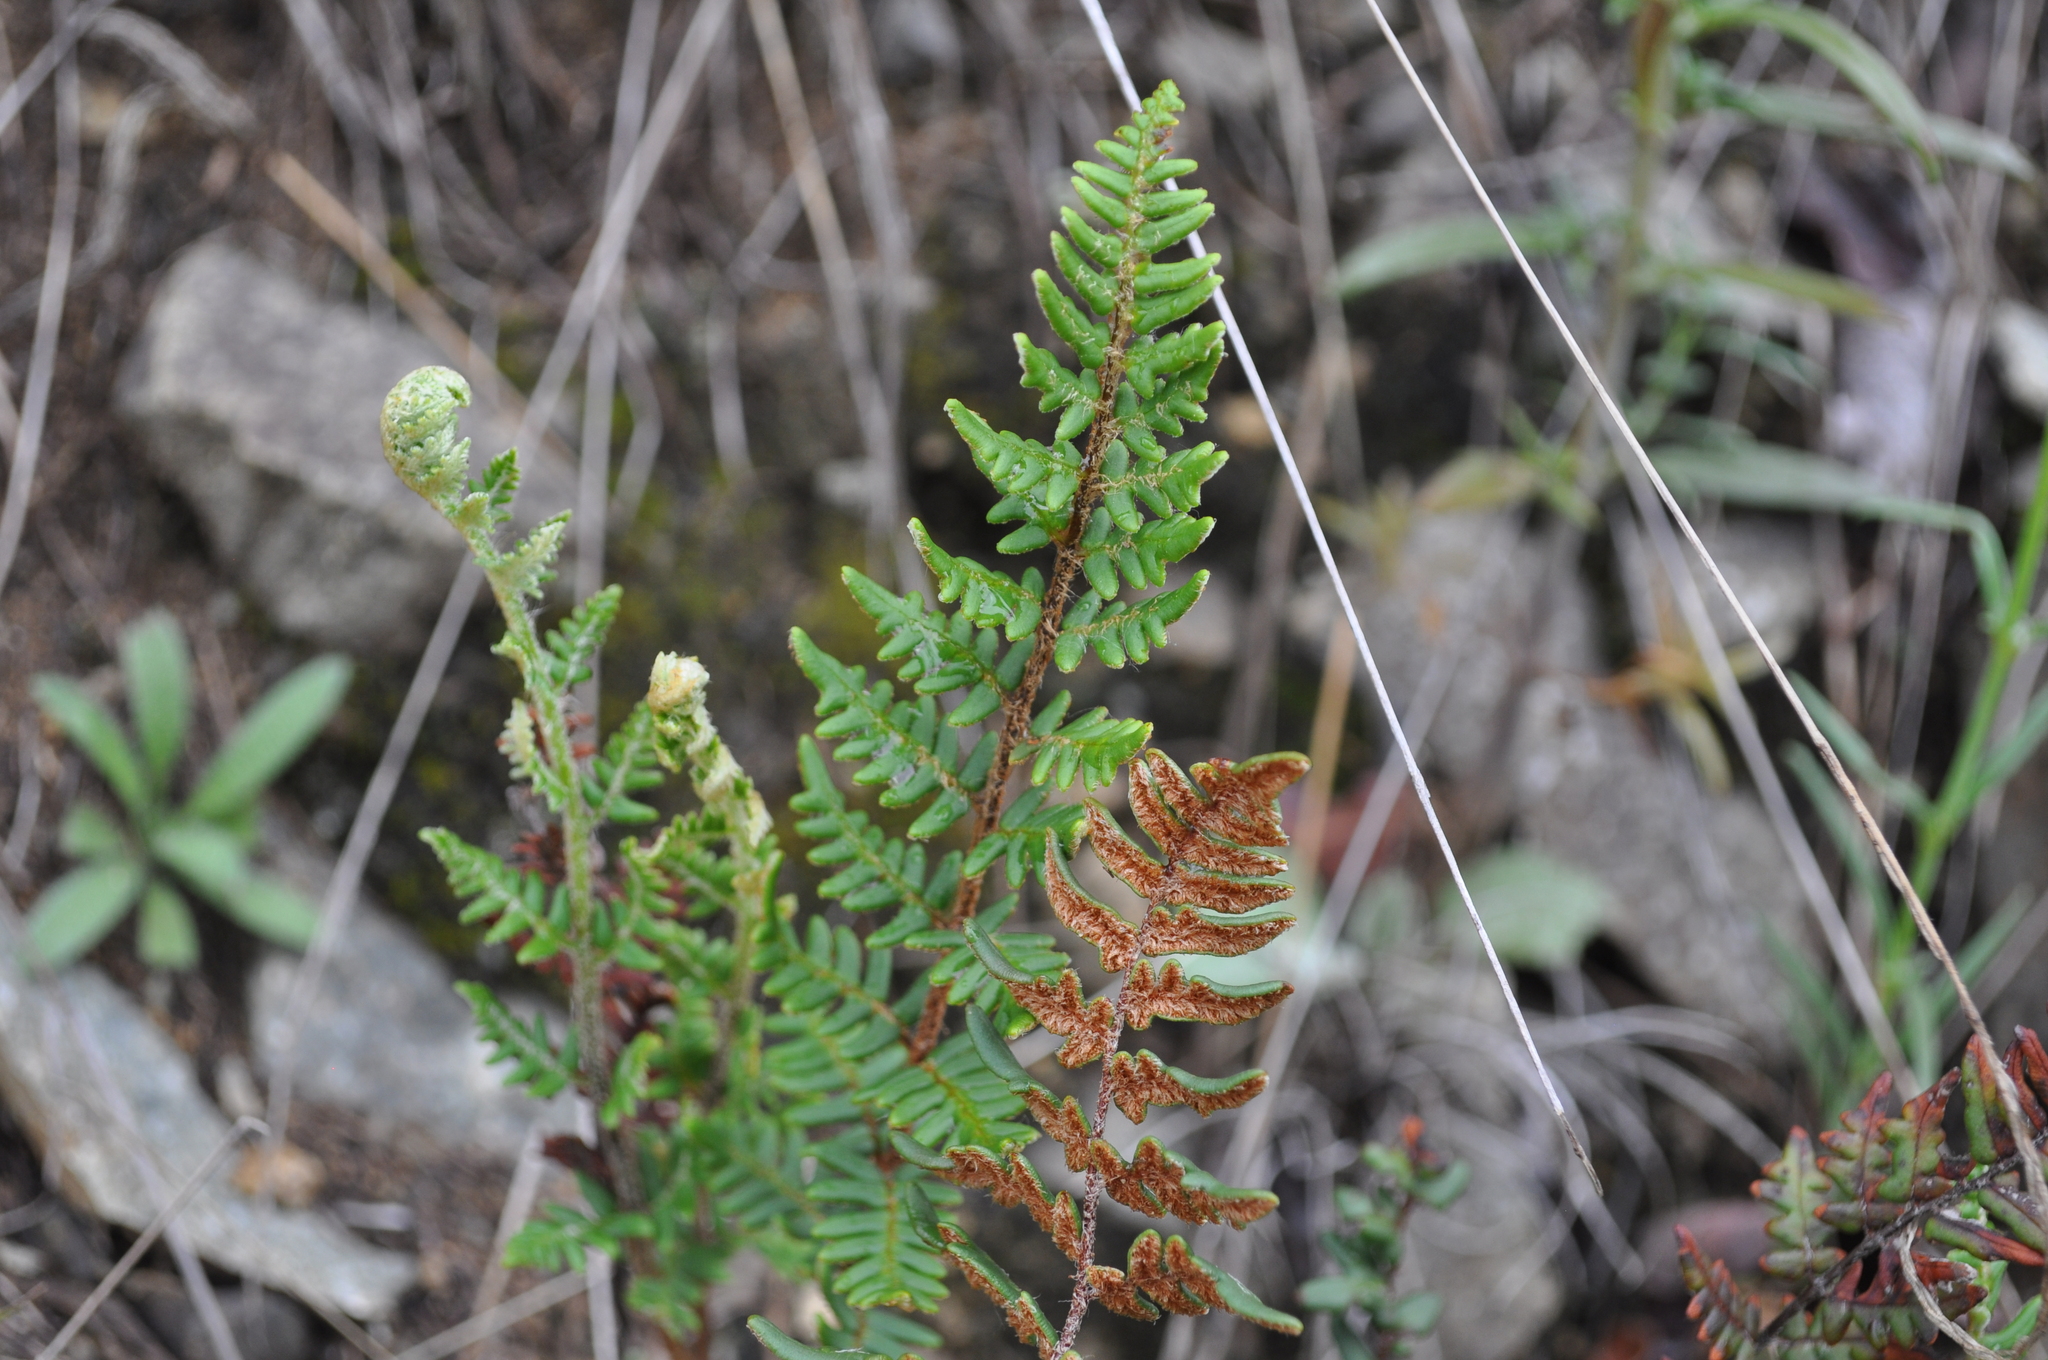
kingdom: Plantae
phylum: Tracheophyta
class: Polypodiopsida
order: Polypodiales
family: Pteridaceae
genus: Paragymnopteris
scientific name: Paragymnopteris marantae
